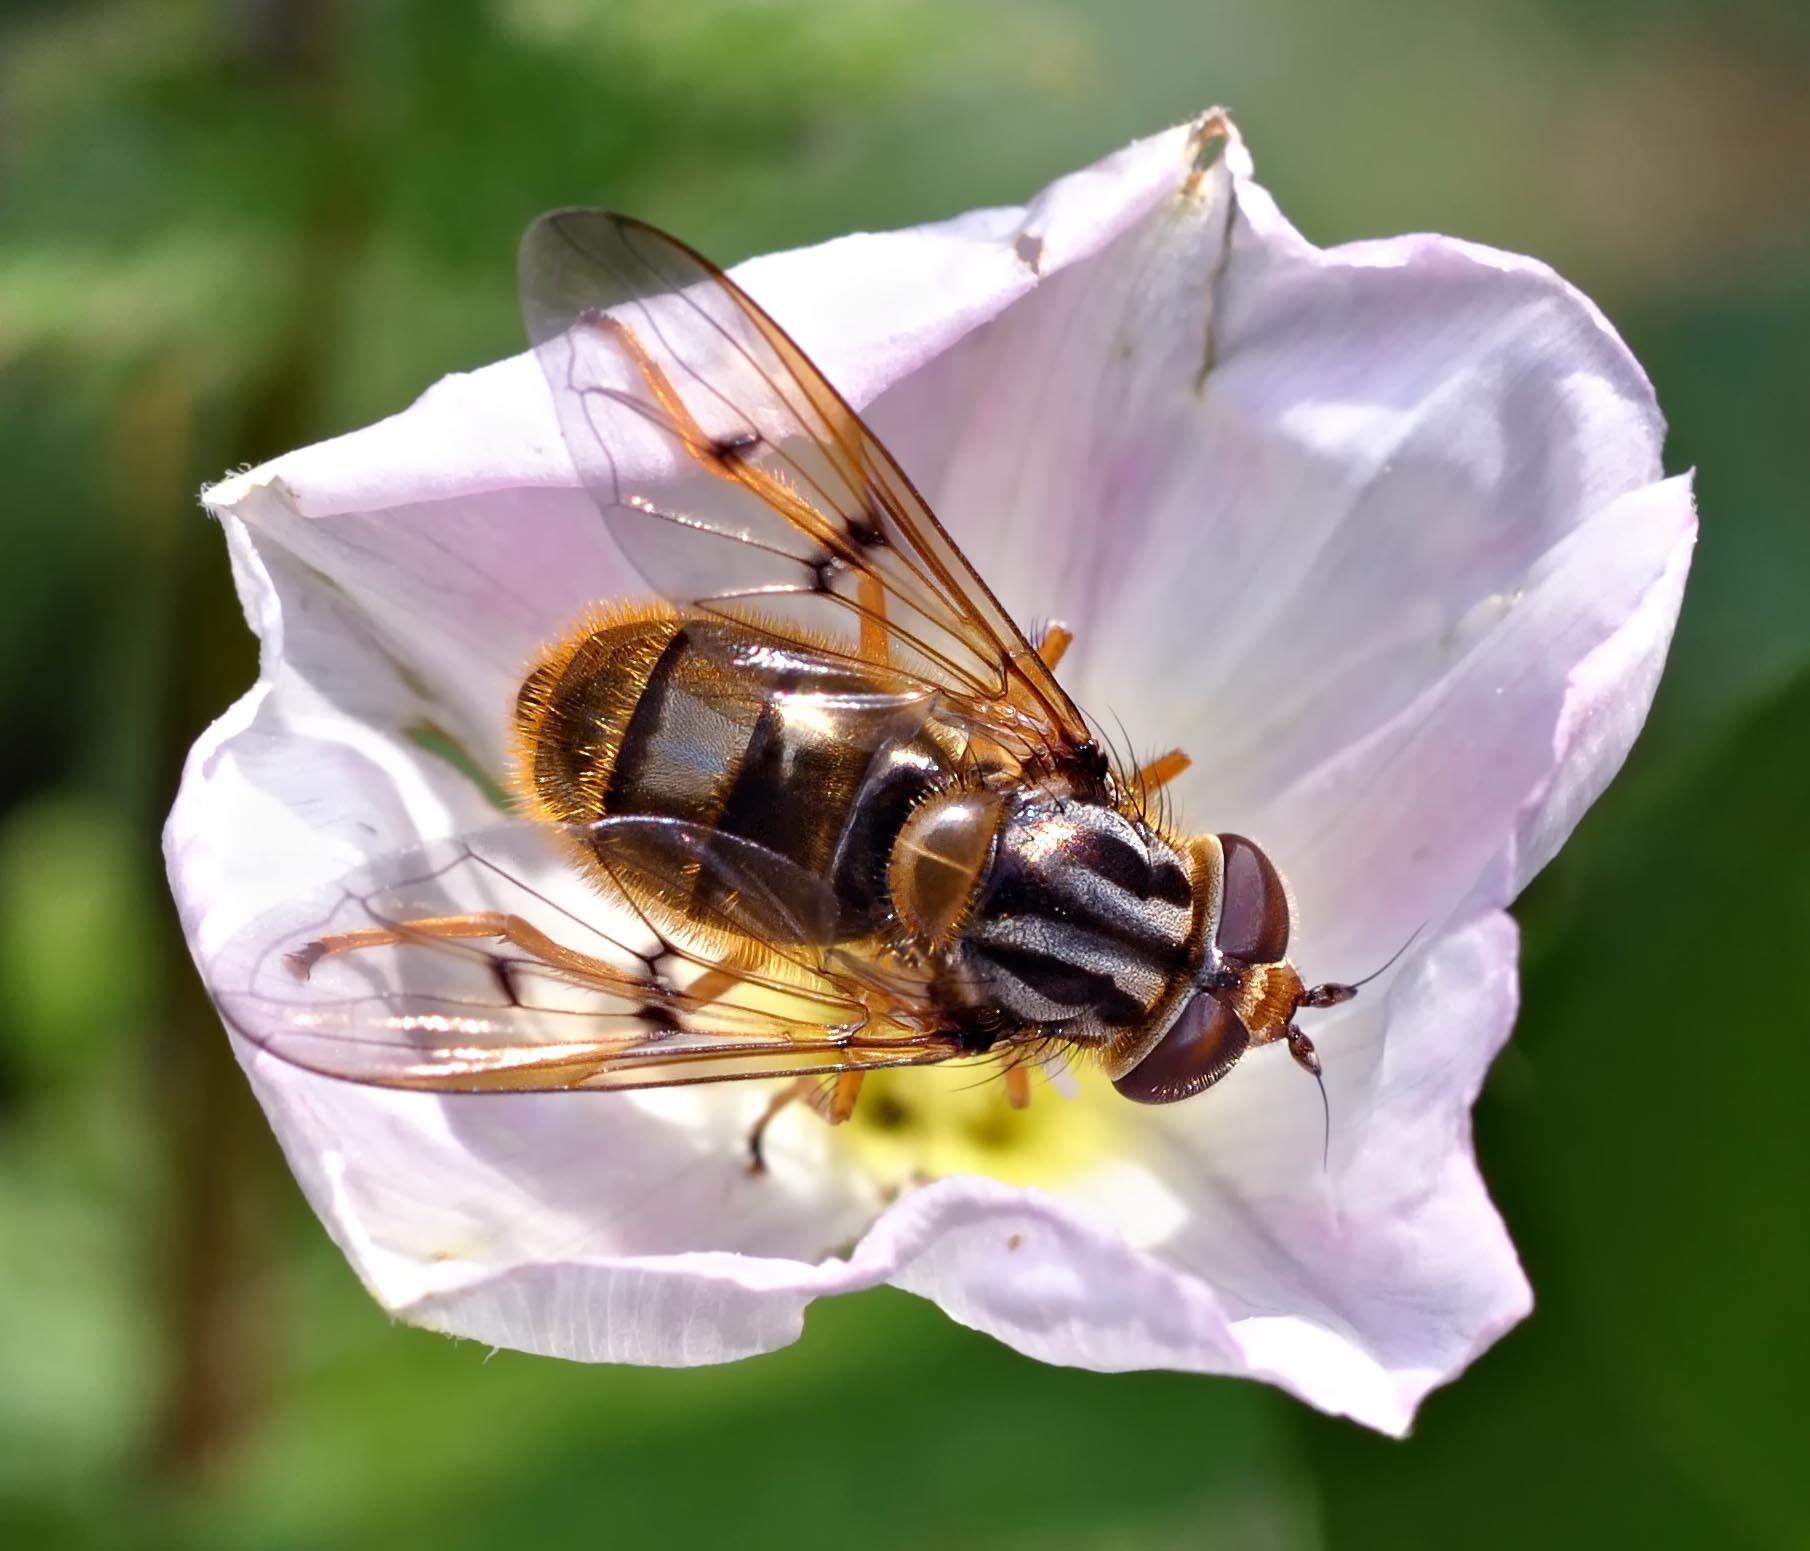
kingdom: Animalia
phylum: Arthropoda
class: Insecta
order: Diptera
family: Syrphidae
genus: Ferdinandea
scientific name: Ferdinandea cuprea
